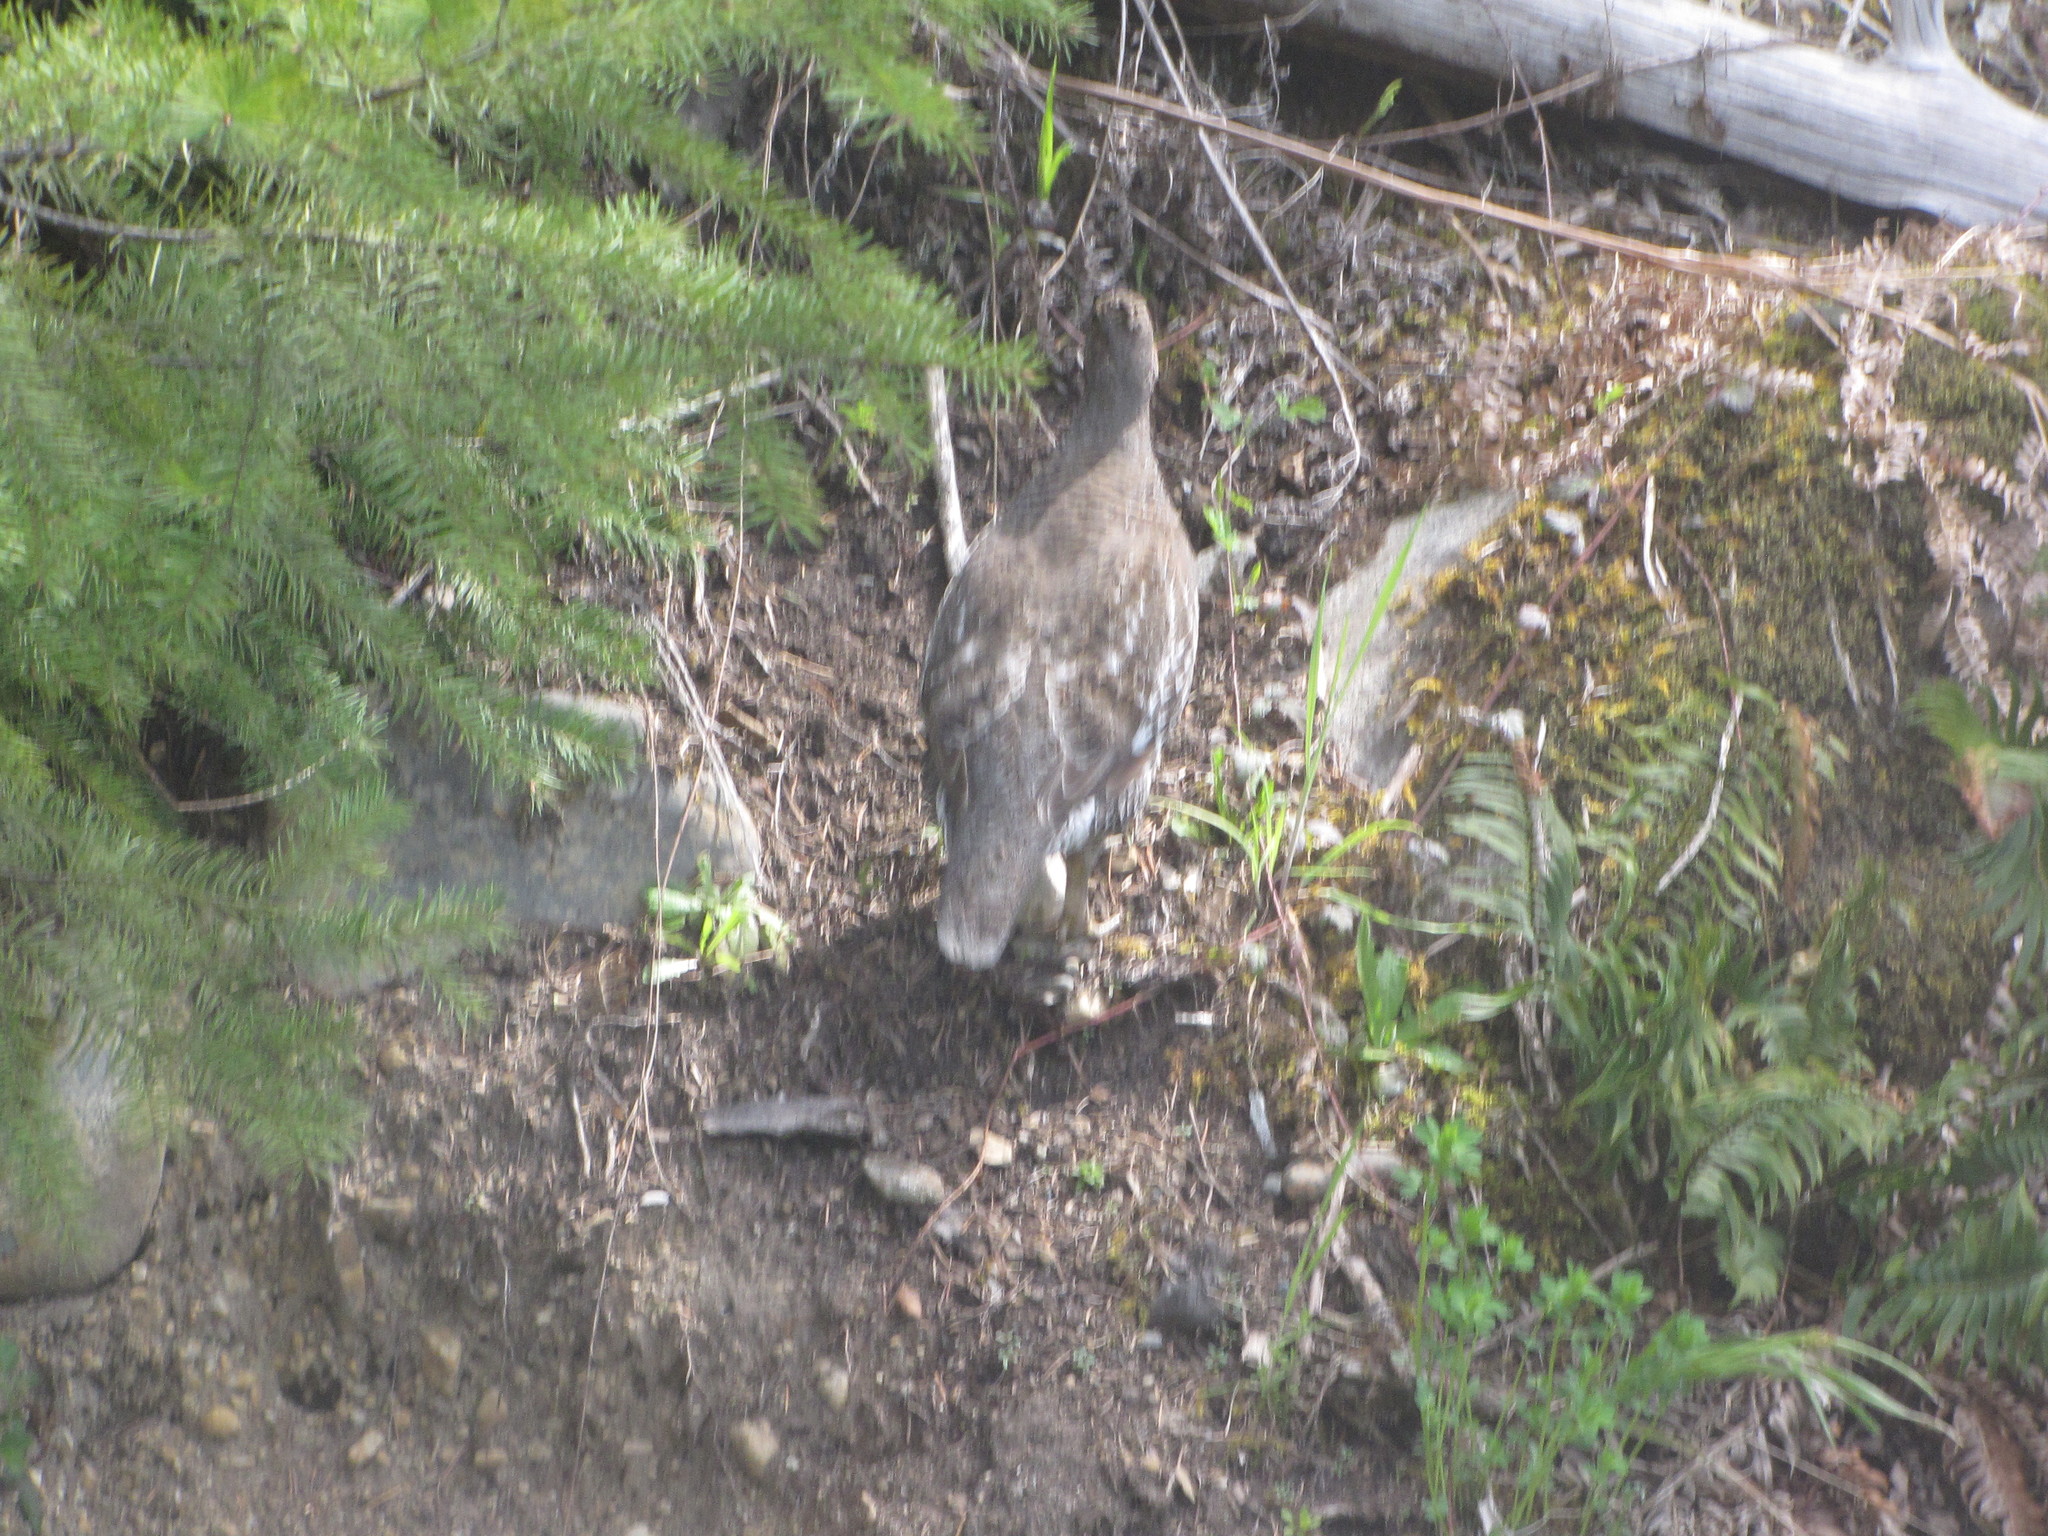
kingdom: Animalia
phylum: Chordata
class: Aves
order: Galliformes
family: Phasianidae
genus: Dendragapus
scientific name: Dendragapus fuliginosus
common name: Sooty grouse
